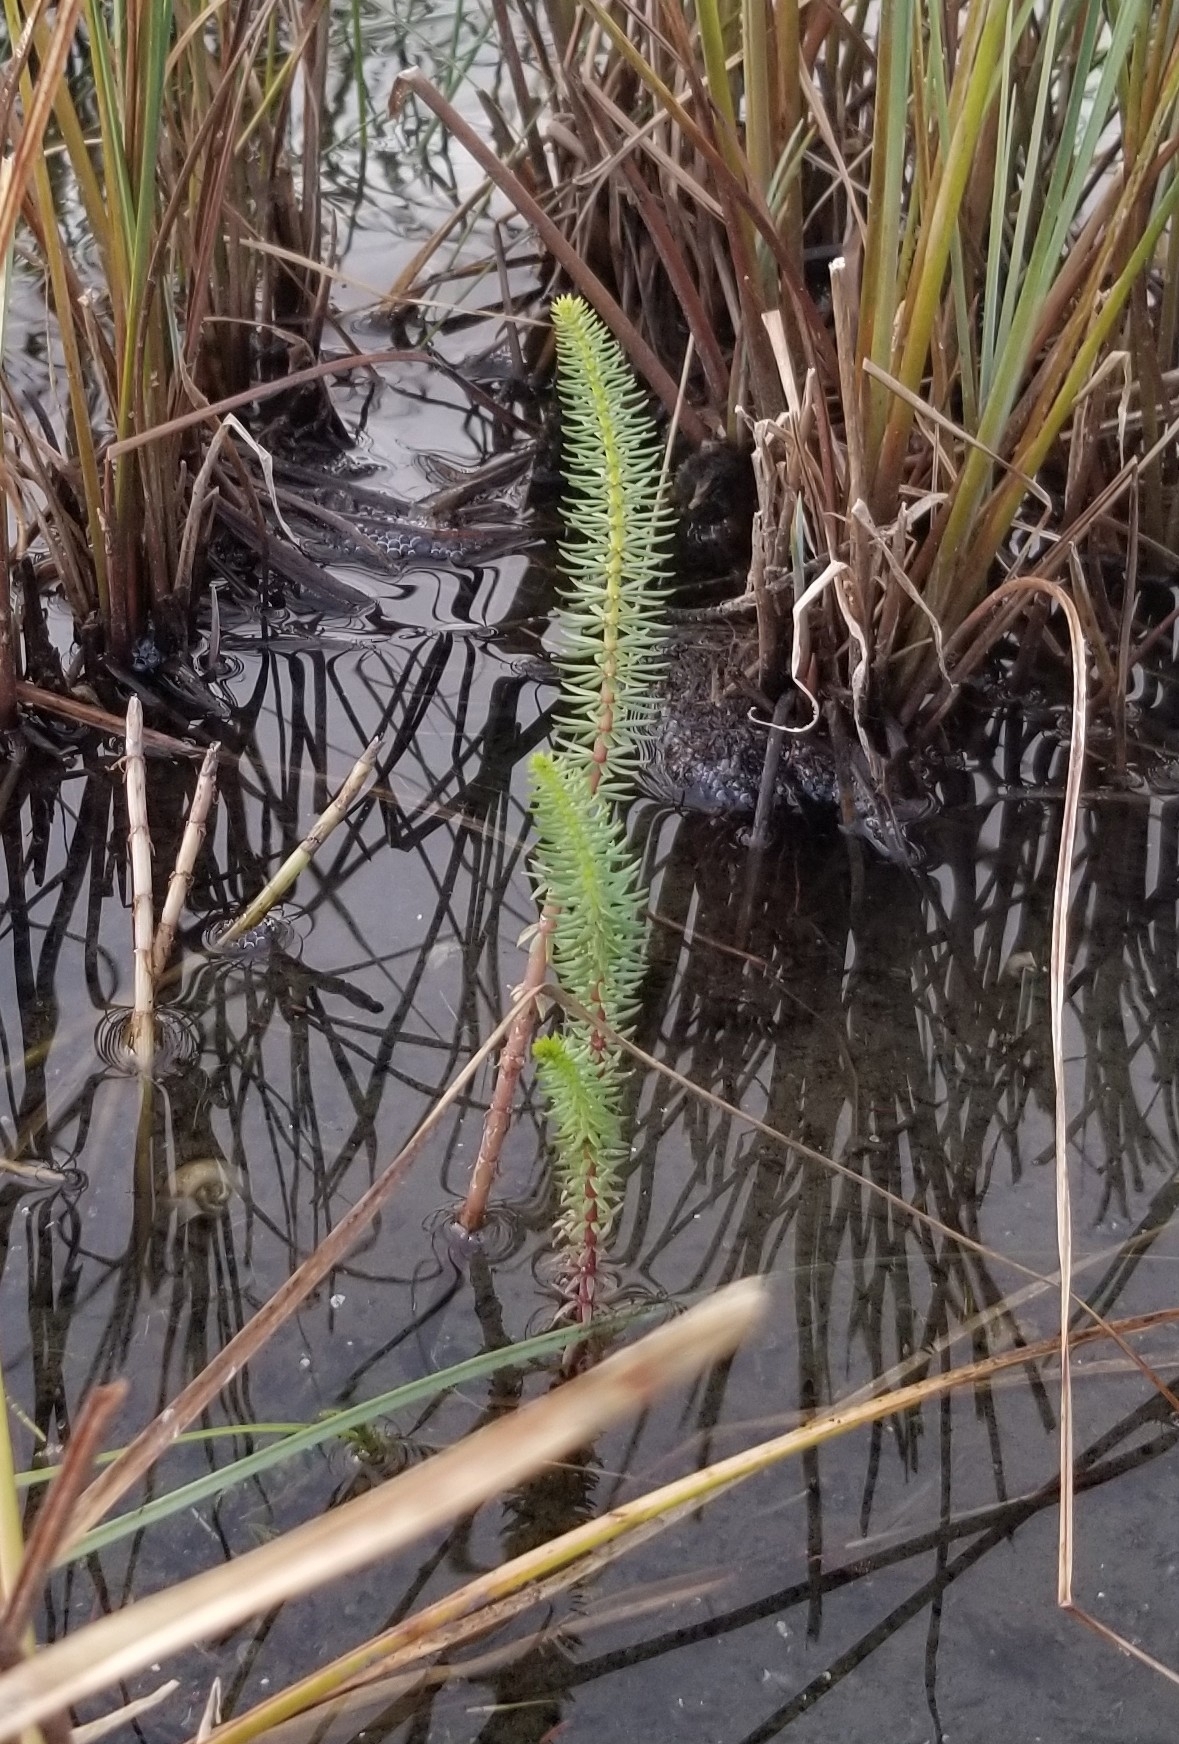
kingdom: Plantae
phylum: Tracheophyta
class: Magnoliopsida
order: Lamiales
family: Plantaginaceae
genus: Hippuris
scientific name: Hippuris vulgaris
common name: Mare's-tail
